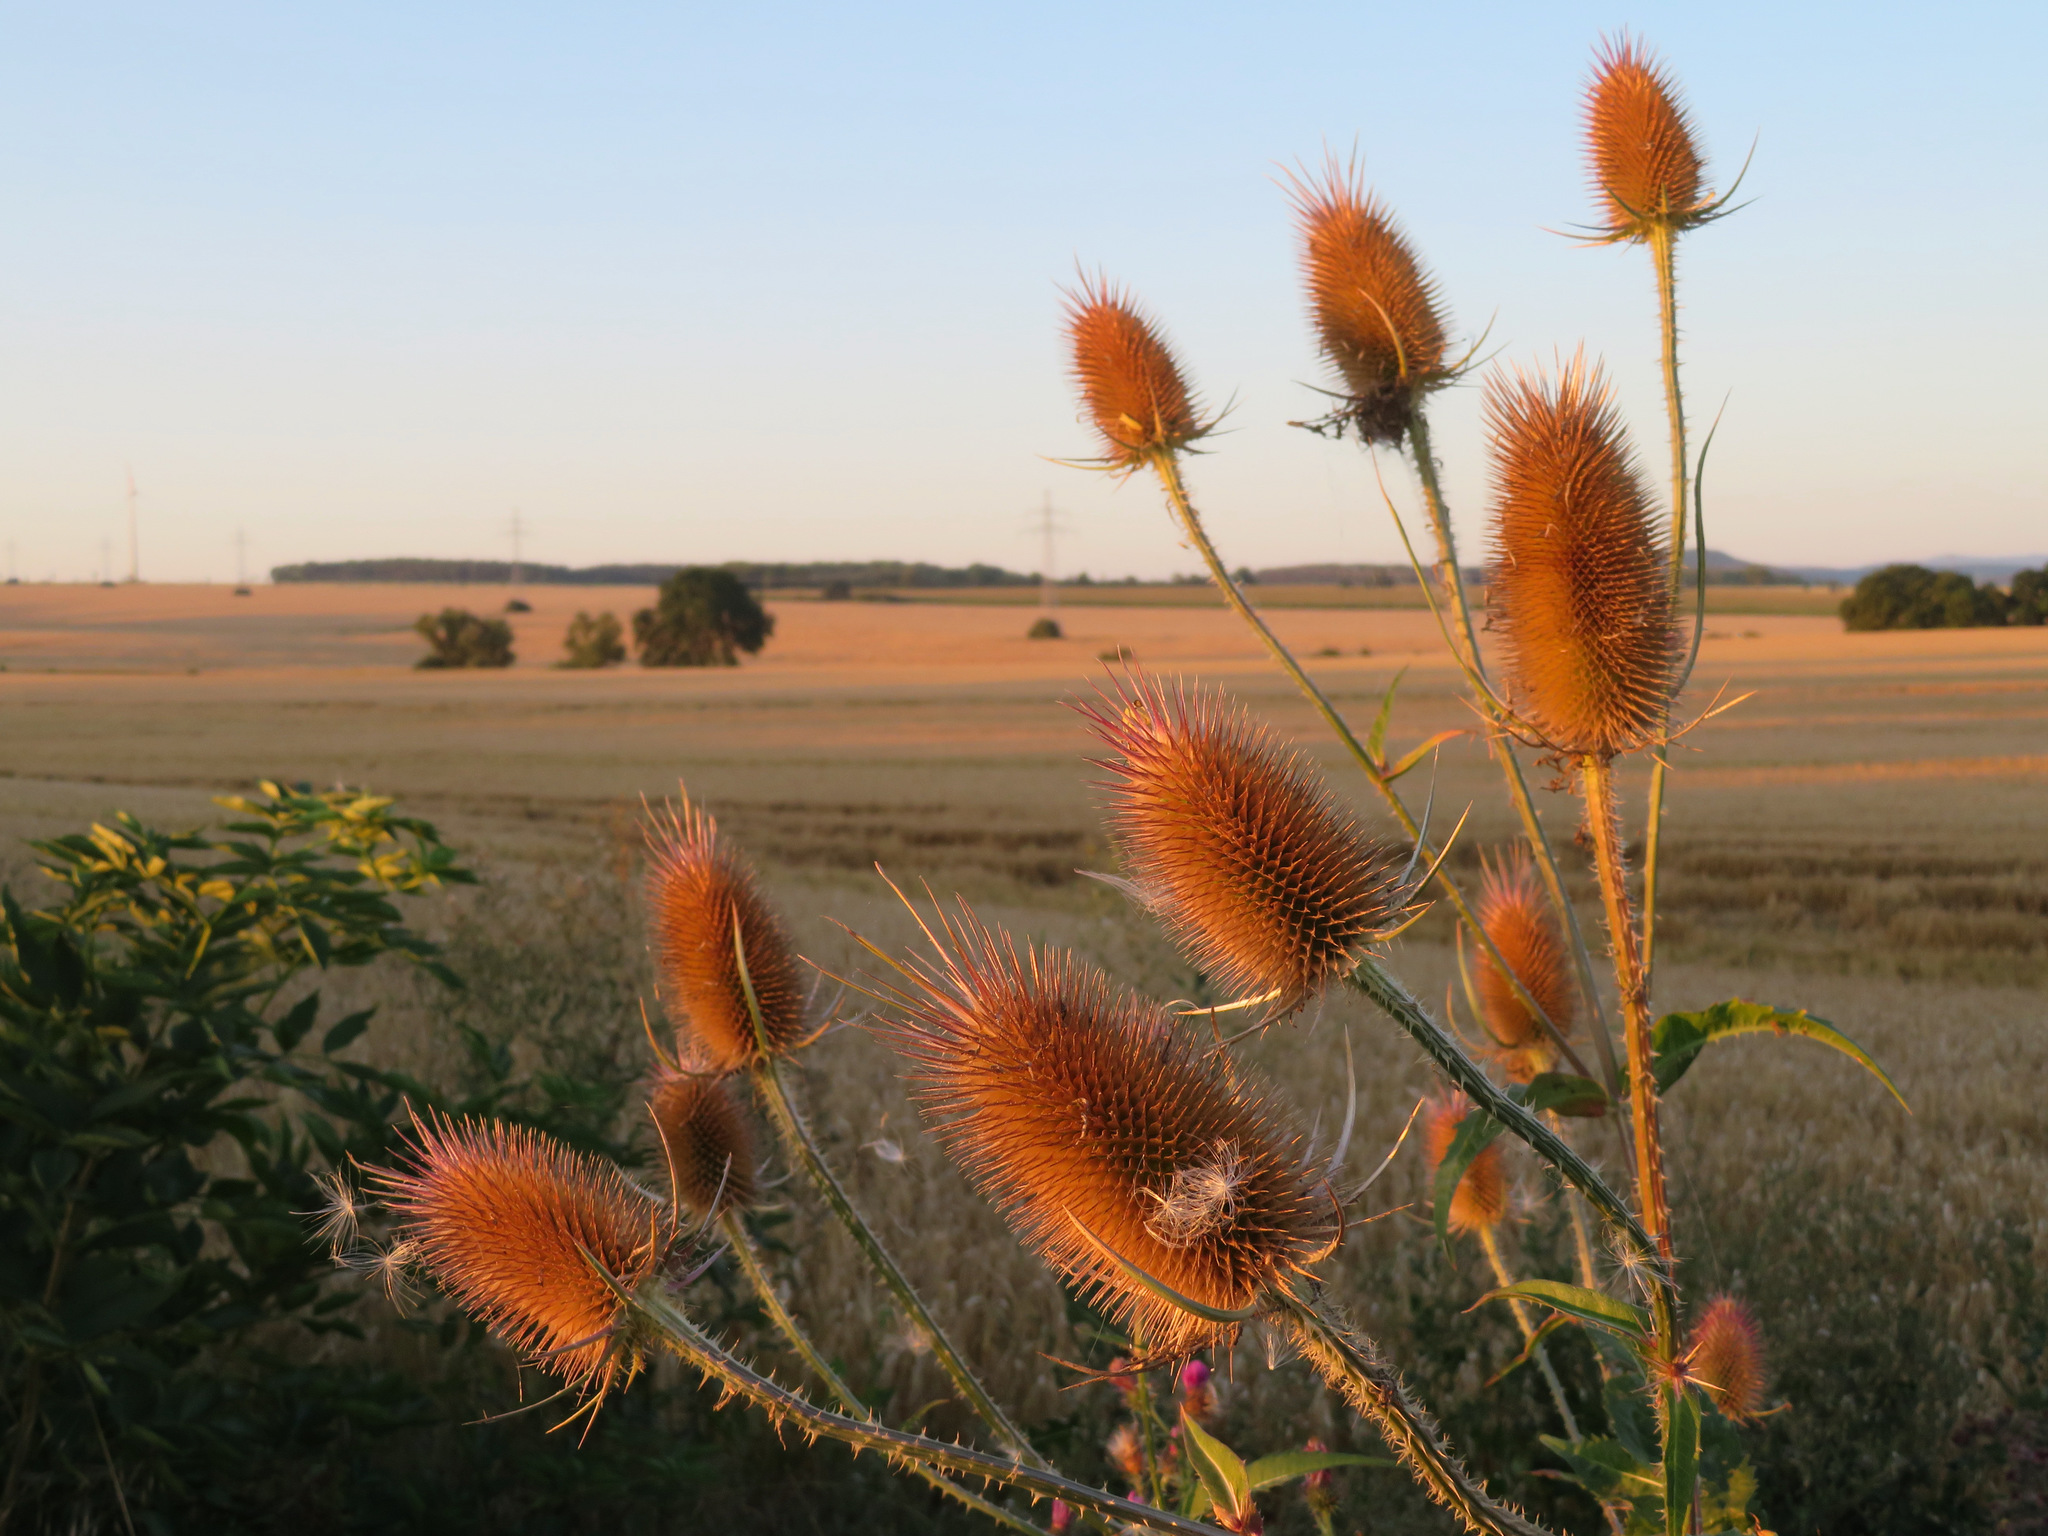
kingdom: Plantae
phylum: Tracheophyta
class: Magnoliopsida
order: Dipsacales
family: Caprifoliaceae
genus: Dipsacus
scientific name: Dipsacus fullonum
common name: Teasel
